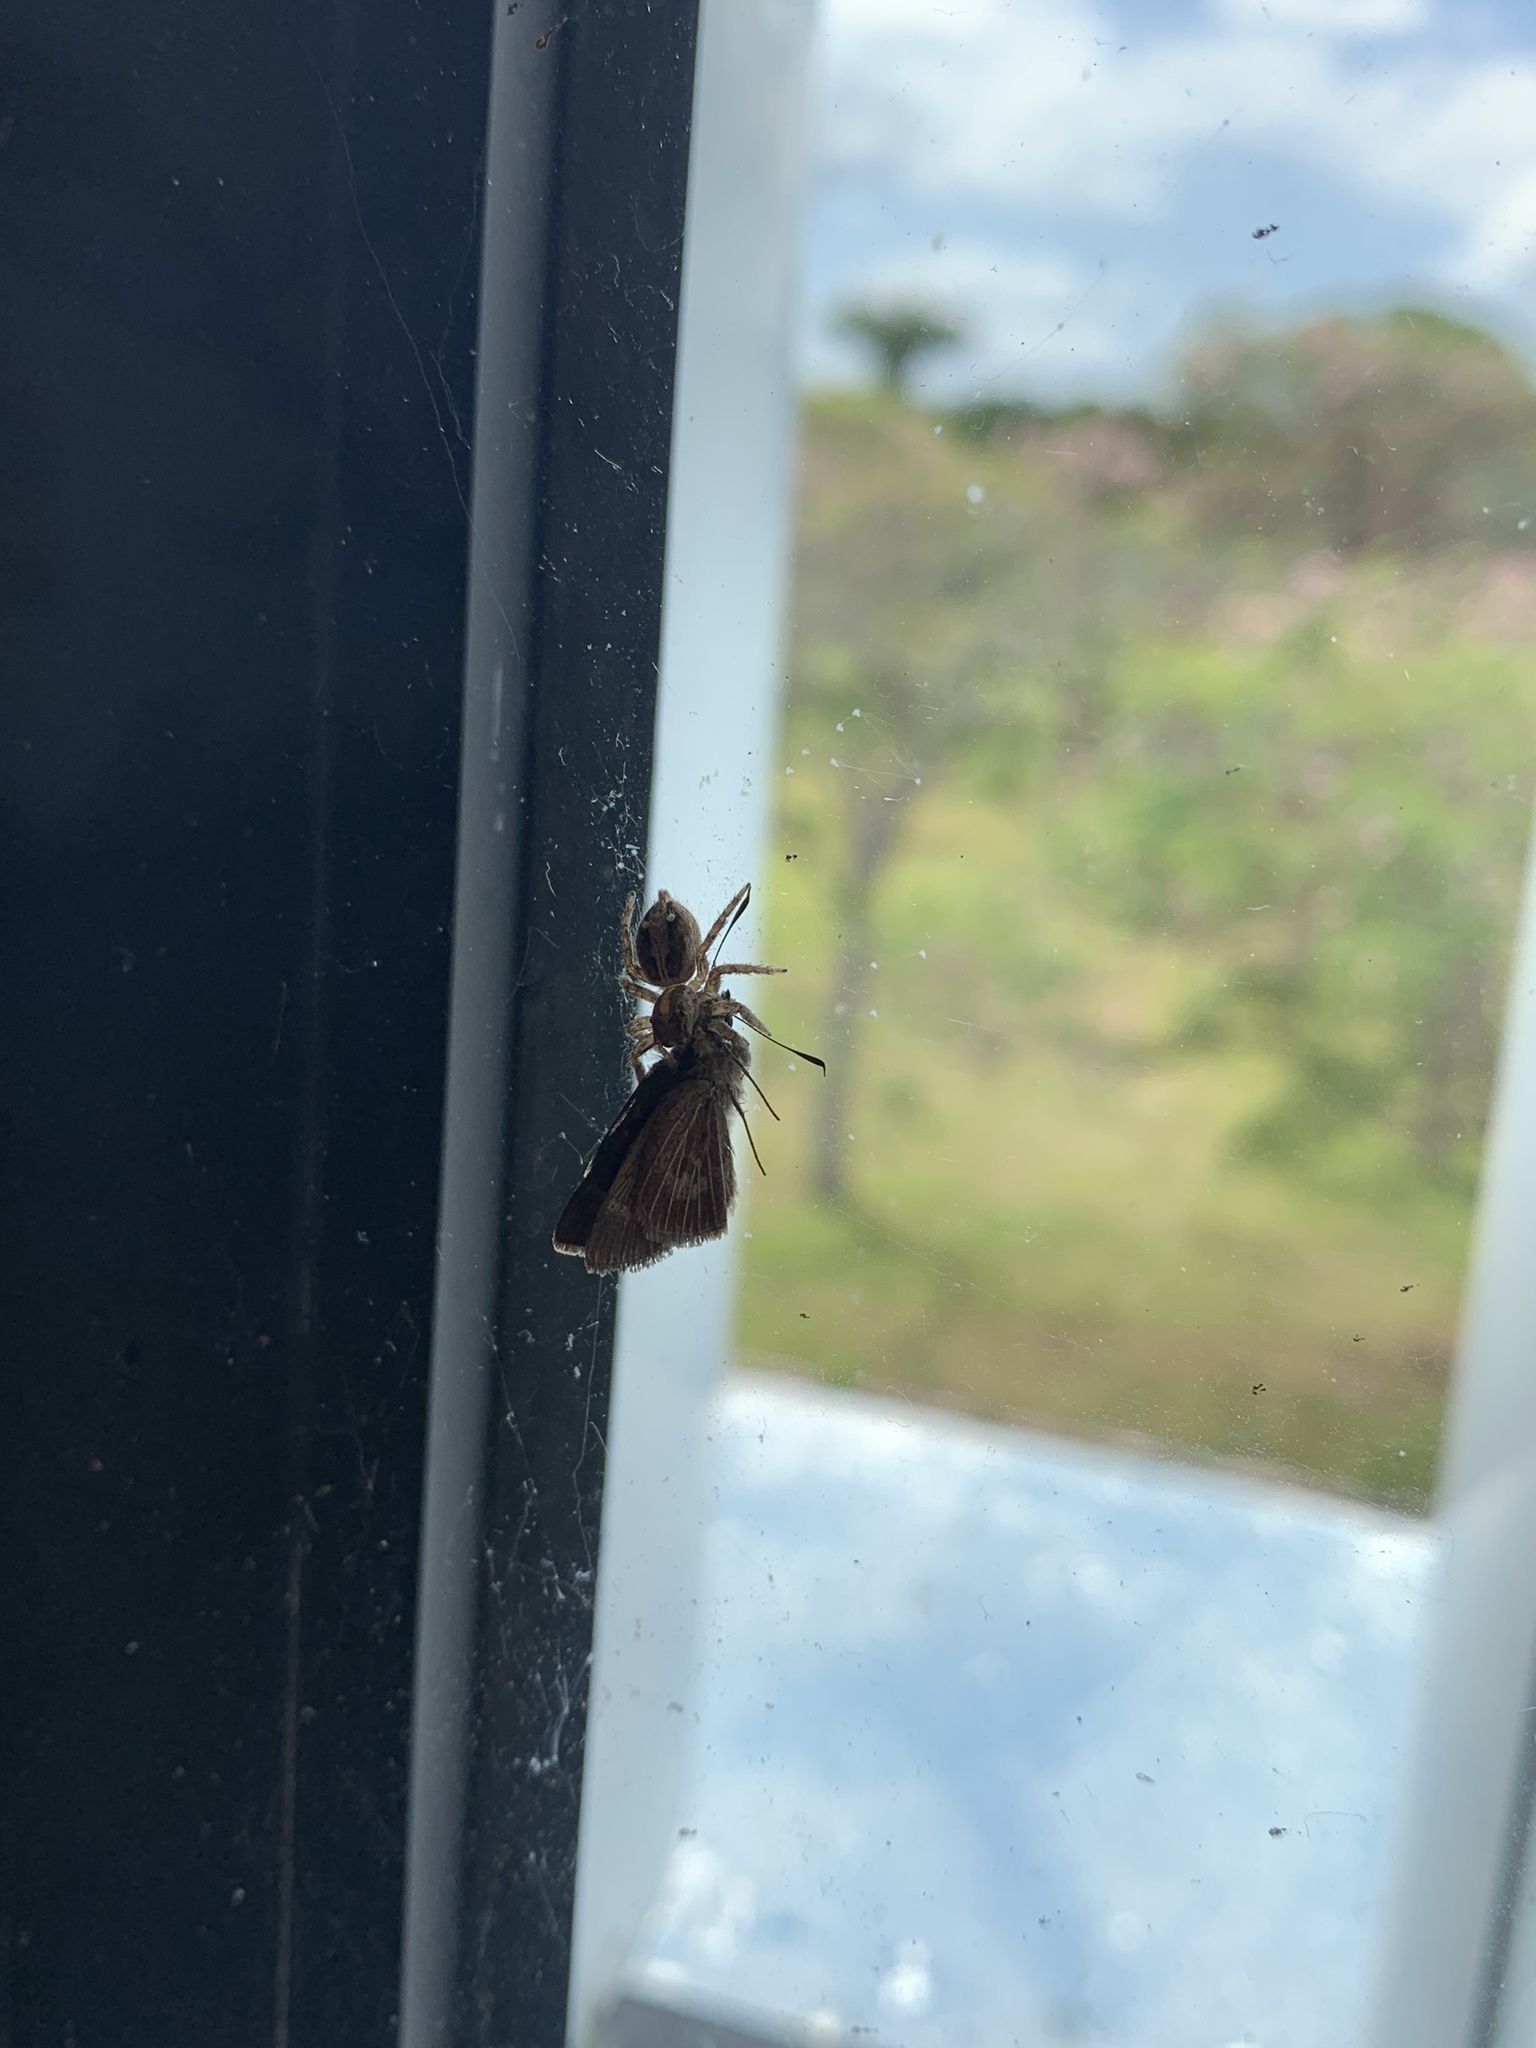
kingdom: Animalia
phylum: Arthropoda
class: Arachnida
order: Araneae
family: Salticidae
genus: Plexippus
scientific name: Plexippus paykulli
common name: Pantropical jumper
